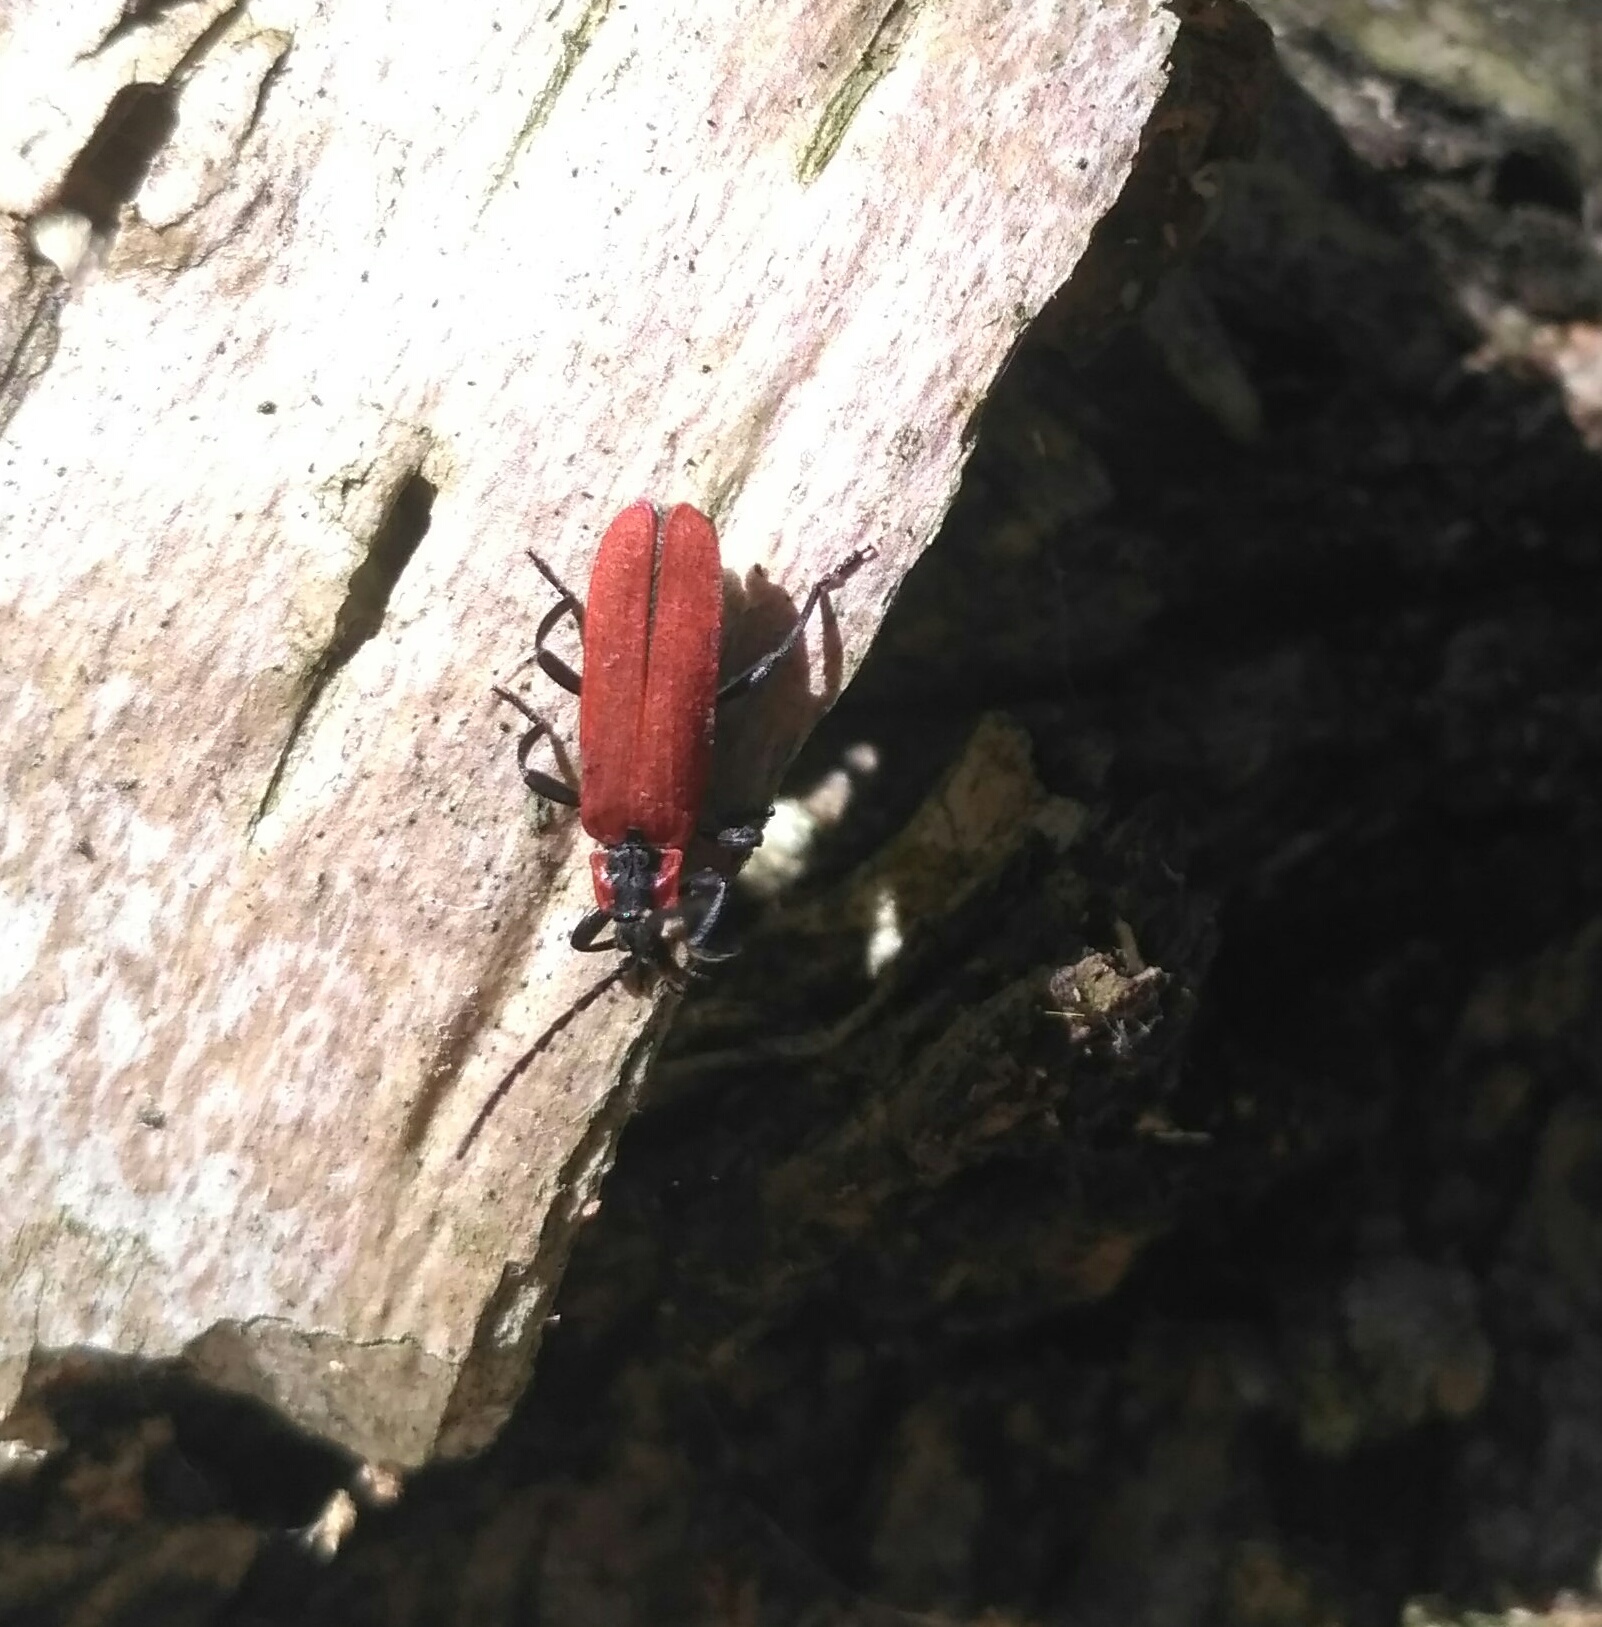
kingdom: Animalia
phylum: Arthropoda
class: Insecta
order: Coleoptera
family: Lycidae
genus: Lygistopterus
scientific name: Lygistopterus sanguineus
